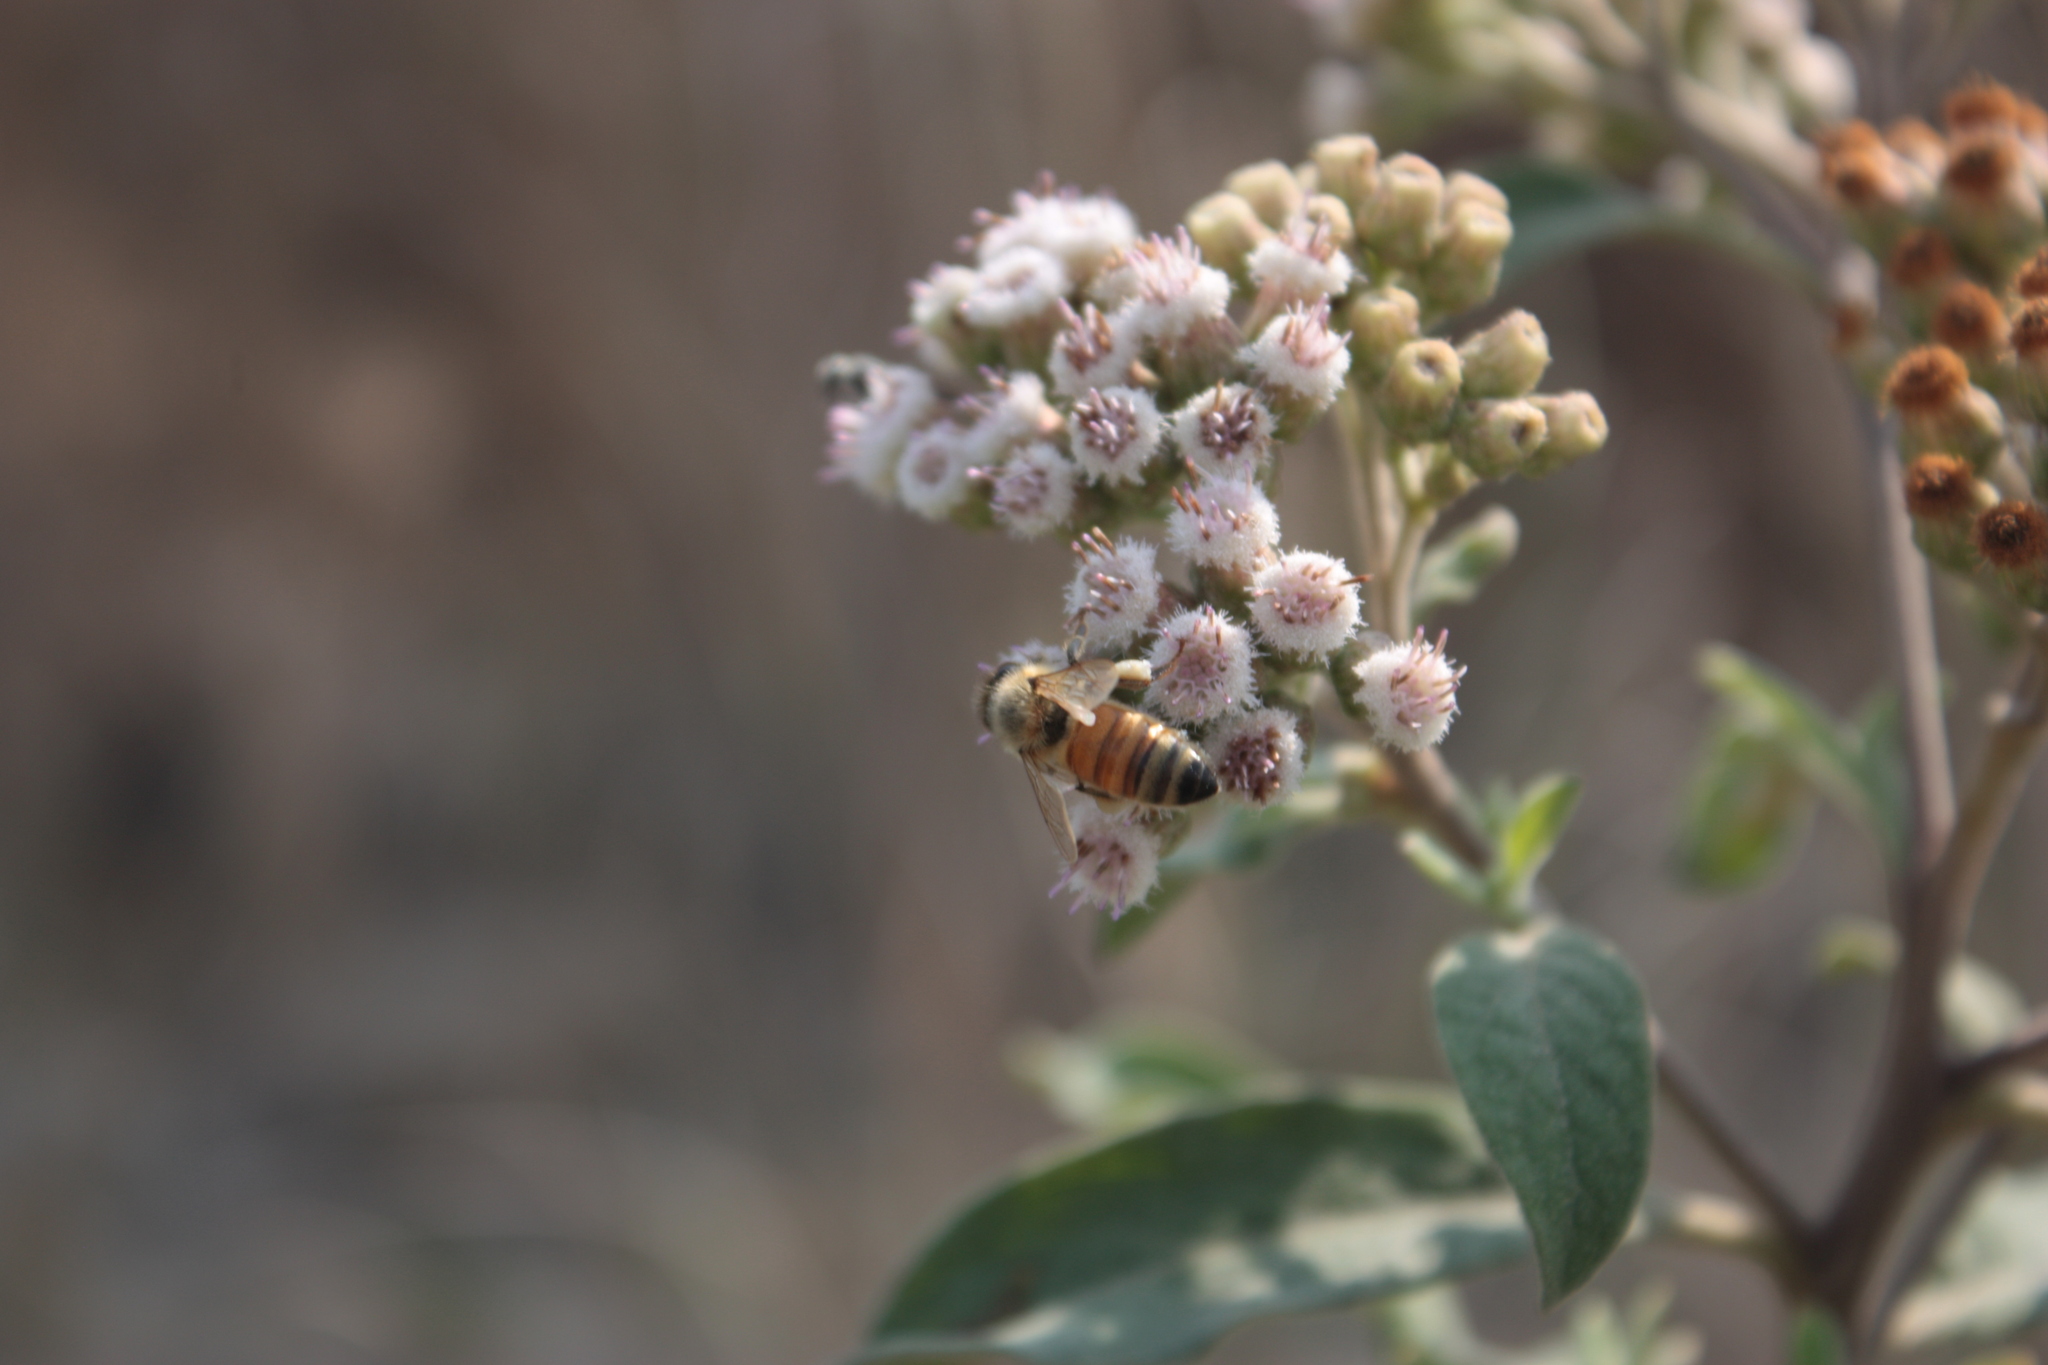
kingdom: Animalia
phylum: Arthropoda
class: Insecta
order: Hymenoptera
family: Apidae
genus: Apis
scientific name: Apis mellifera
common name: Honey bee
